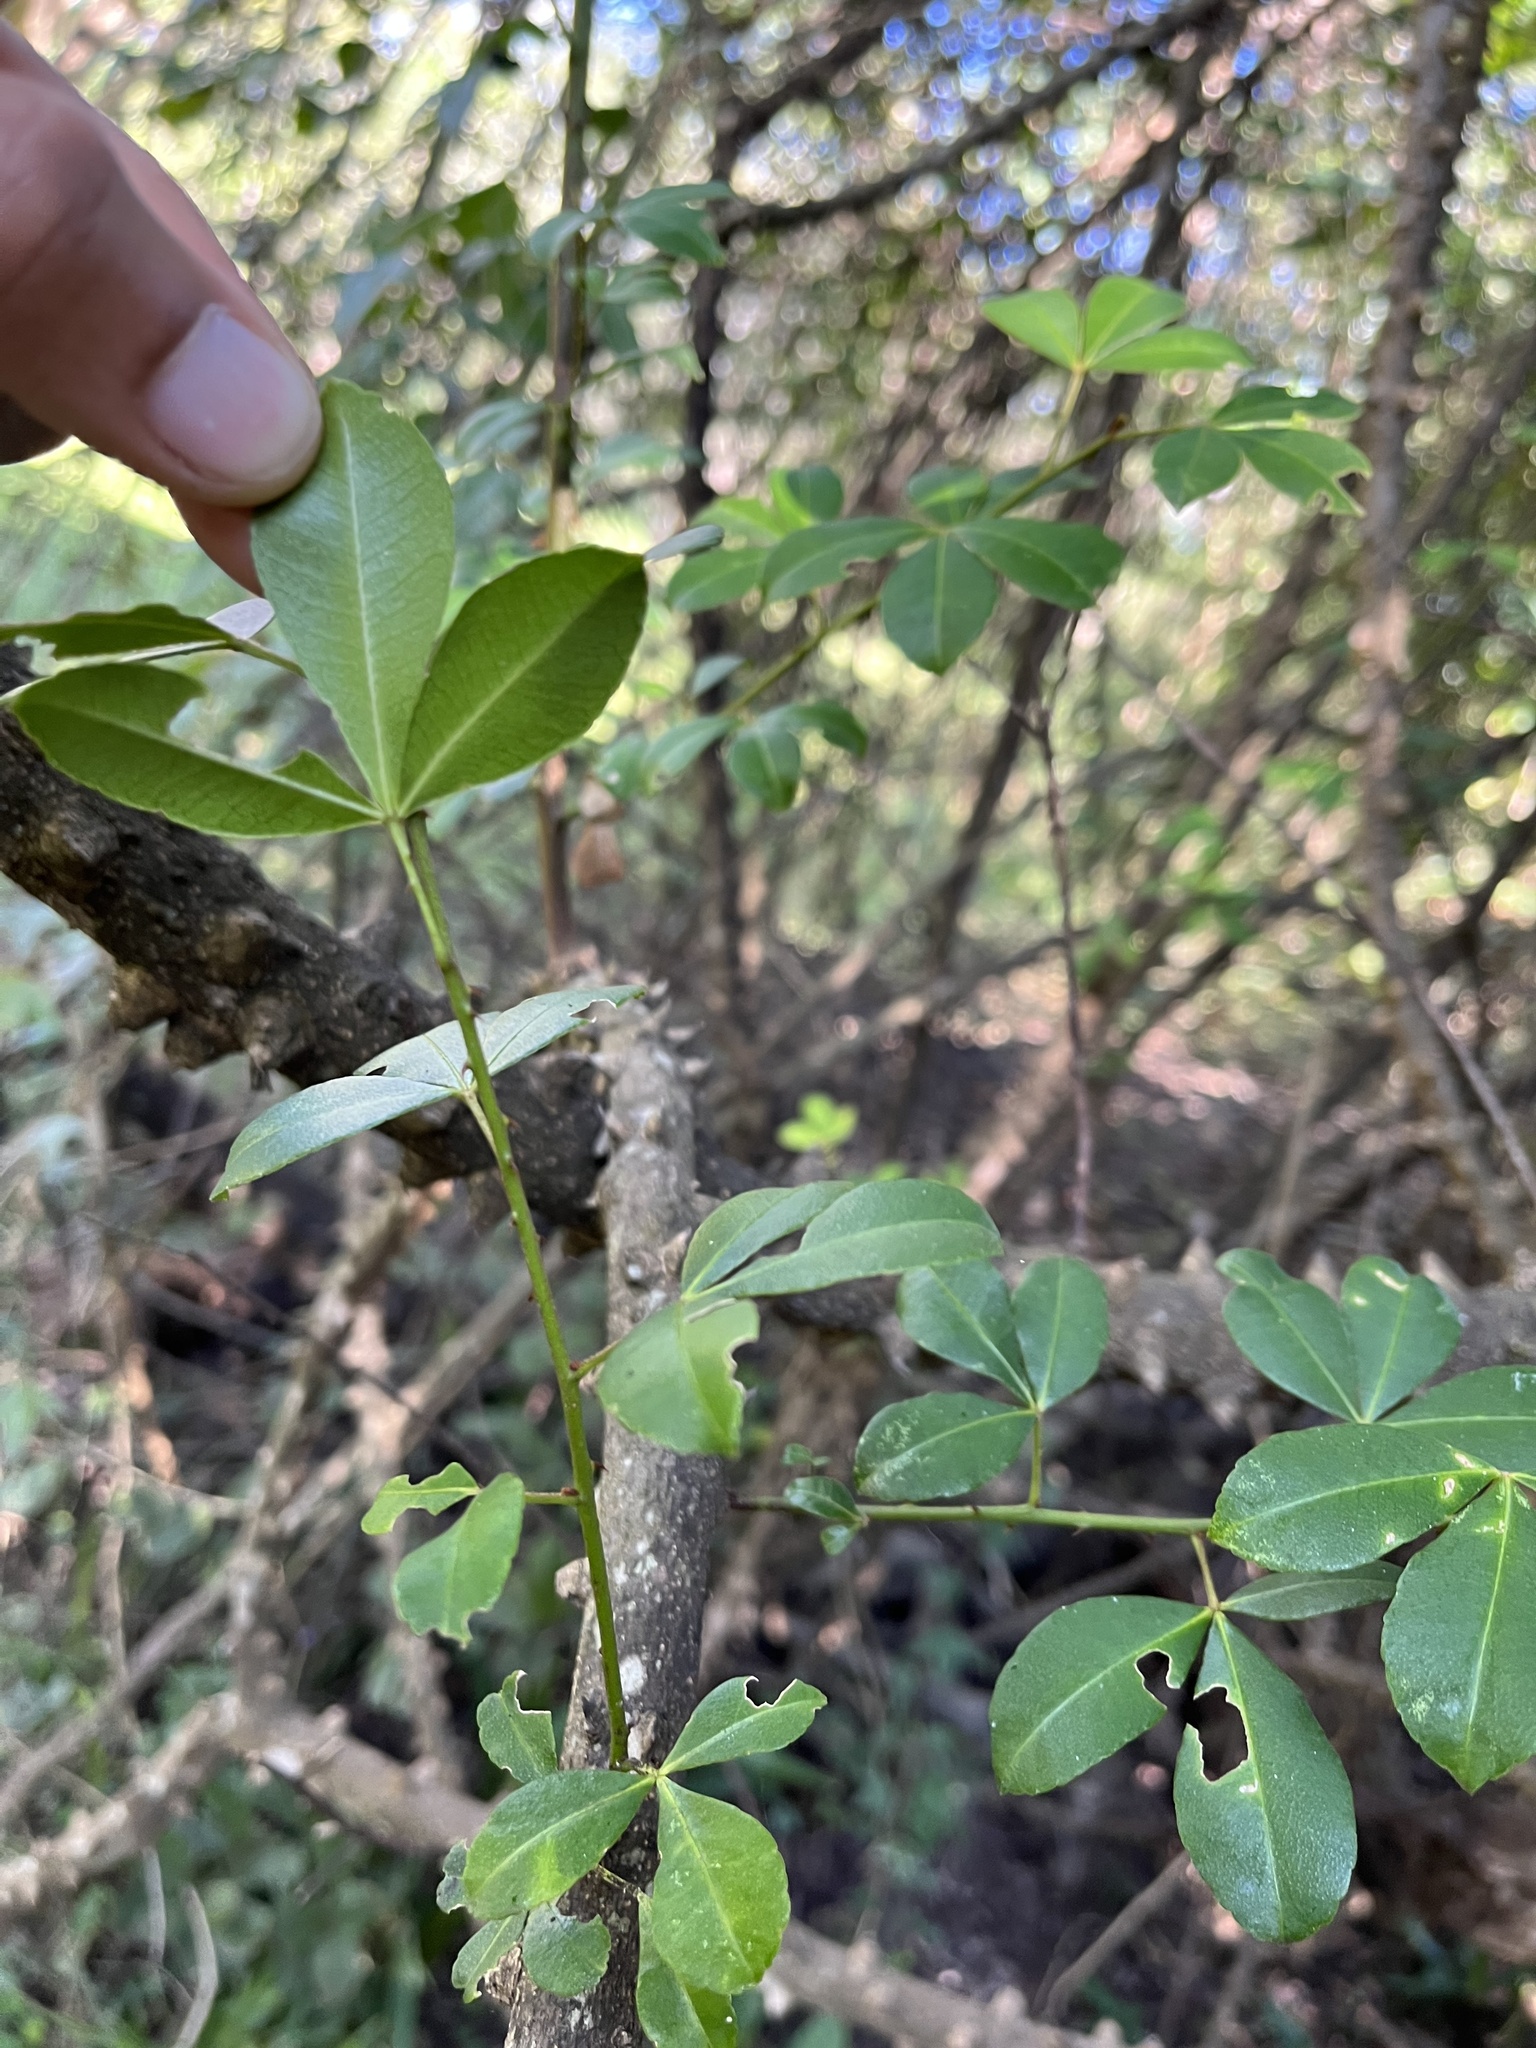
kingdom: Plantae
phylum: Tracheophyta
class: Magnoliopsida
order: Sapindales
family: Rutaceae
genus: Zanthoxylum
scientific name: Zanthoxylum asiaticum
